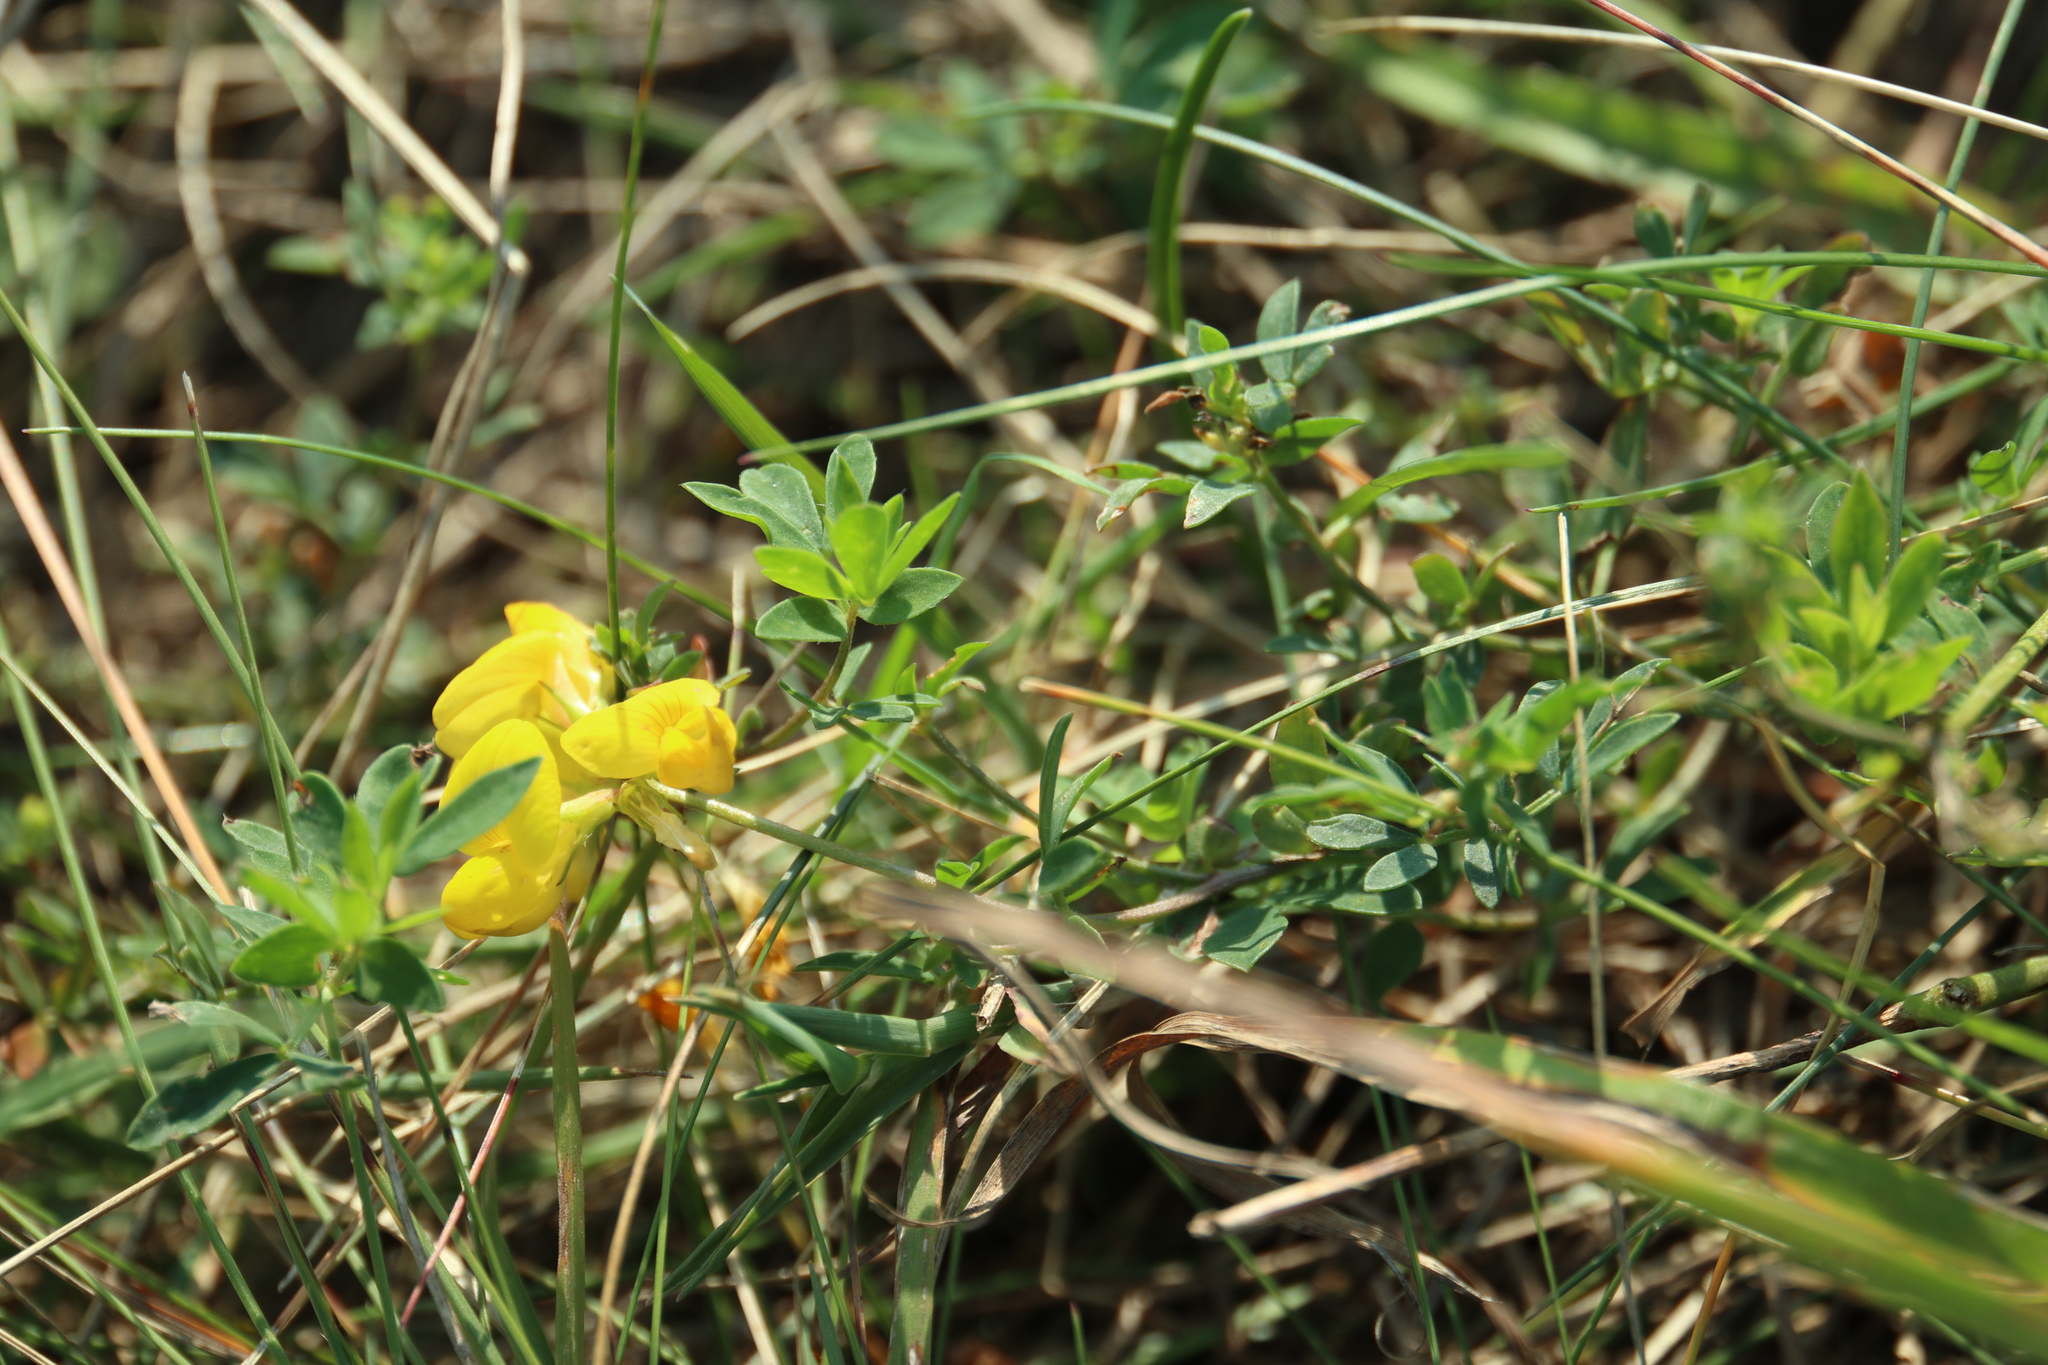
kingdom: Plantae
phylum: Tracheophyta
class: Magnoliopsida
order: Lamiales
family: Plantaginaceae
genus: Linaria
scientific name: Linaria vulgaris
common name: Butter and eggs
